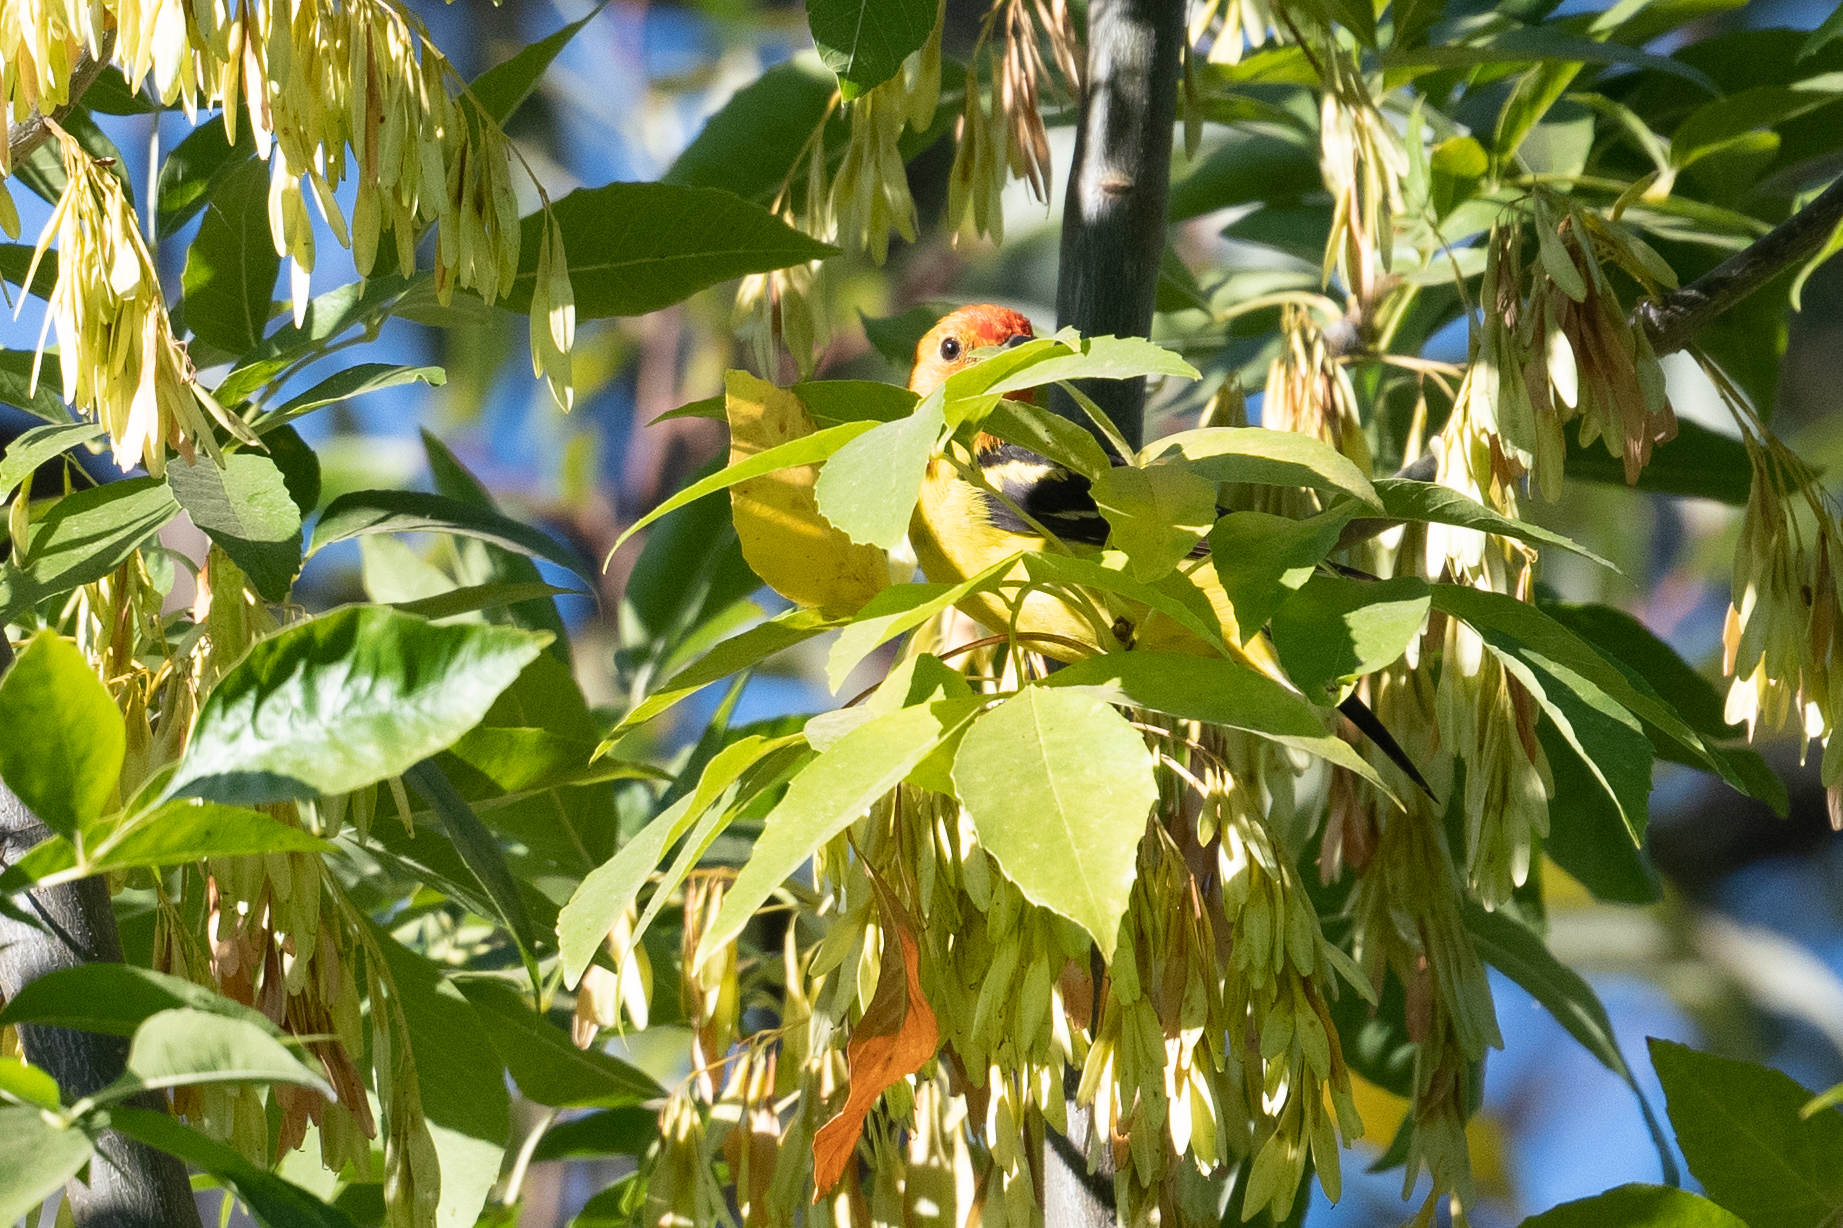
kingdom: Animalia
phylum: Chordata
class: Aves
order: Passeriformes
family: Cardinalidae
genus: Piranga
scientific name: Piranga ludoviciana
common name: Western tanager
